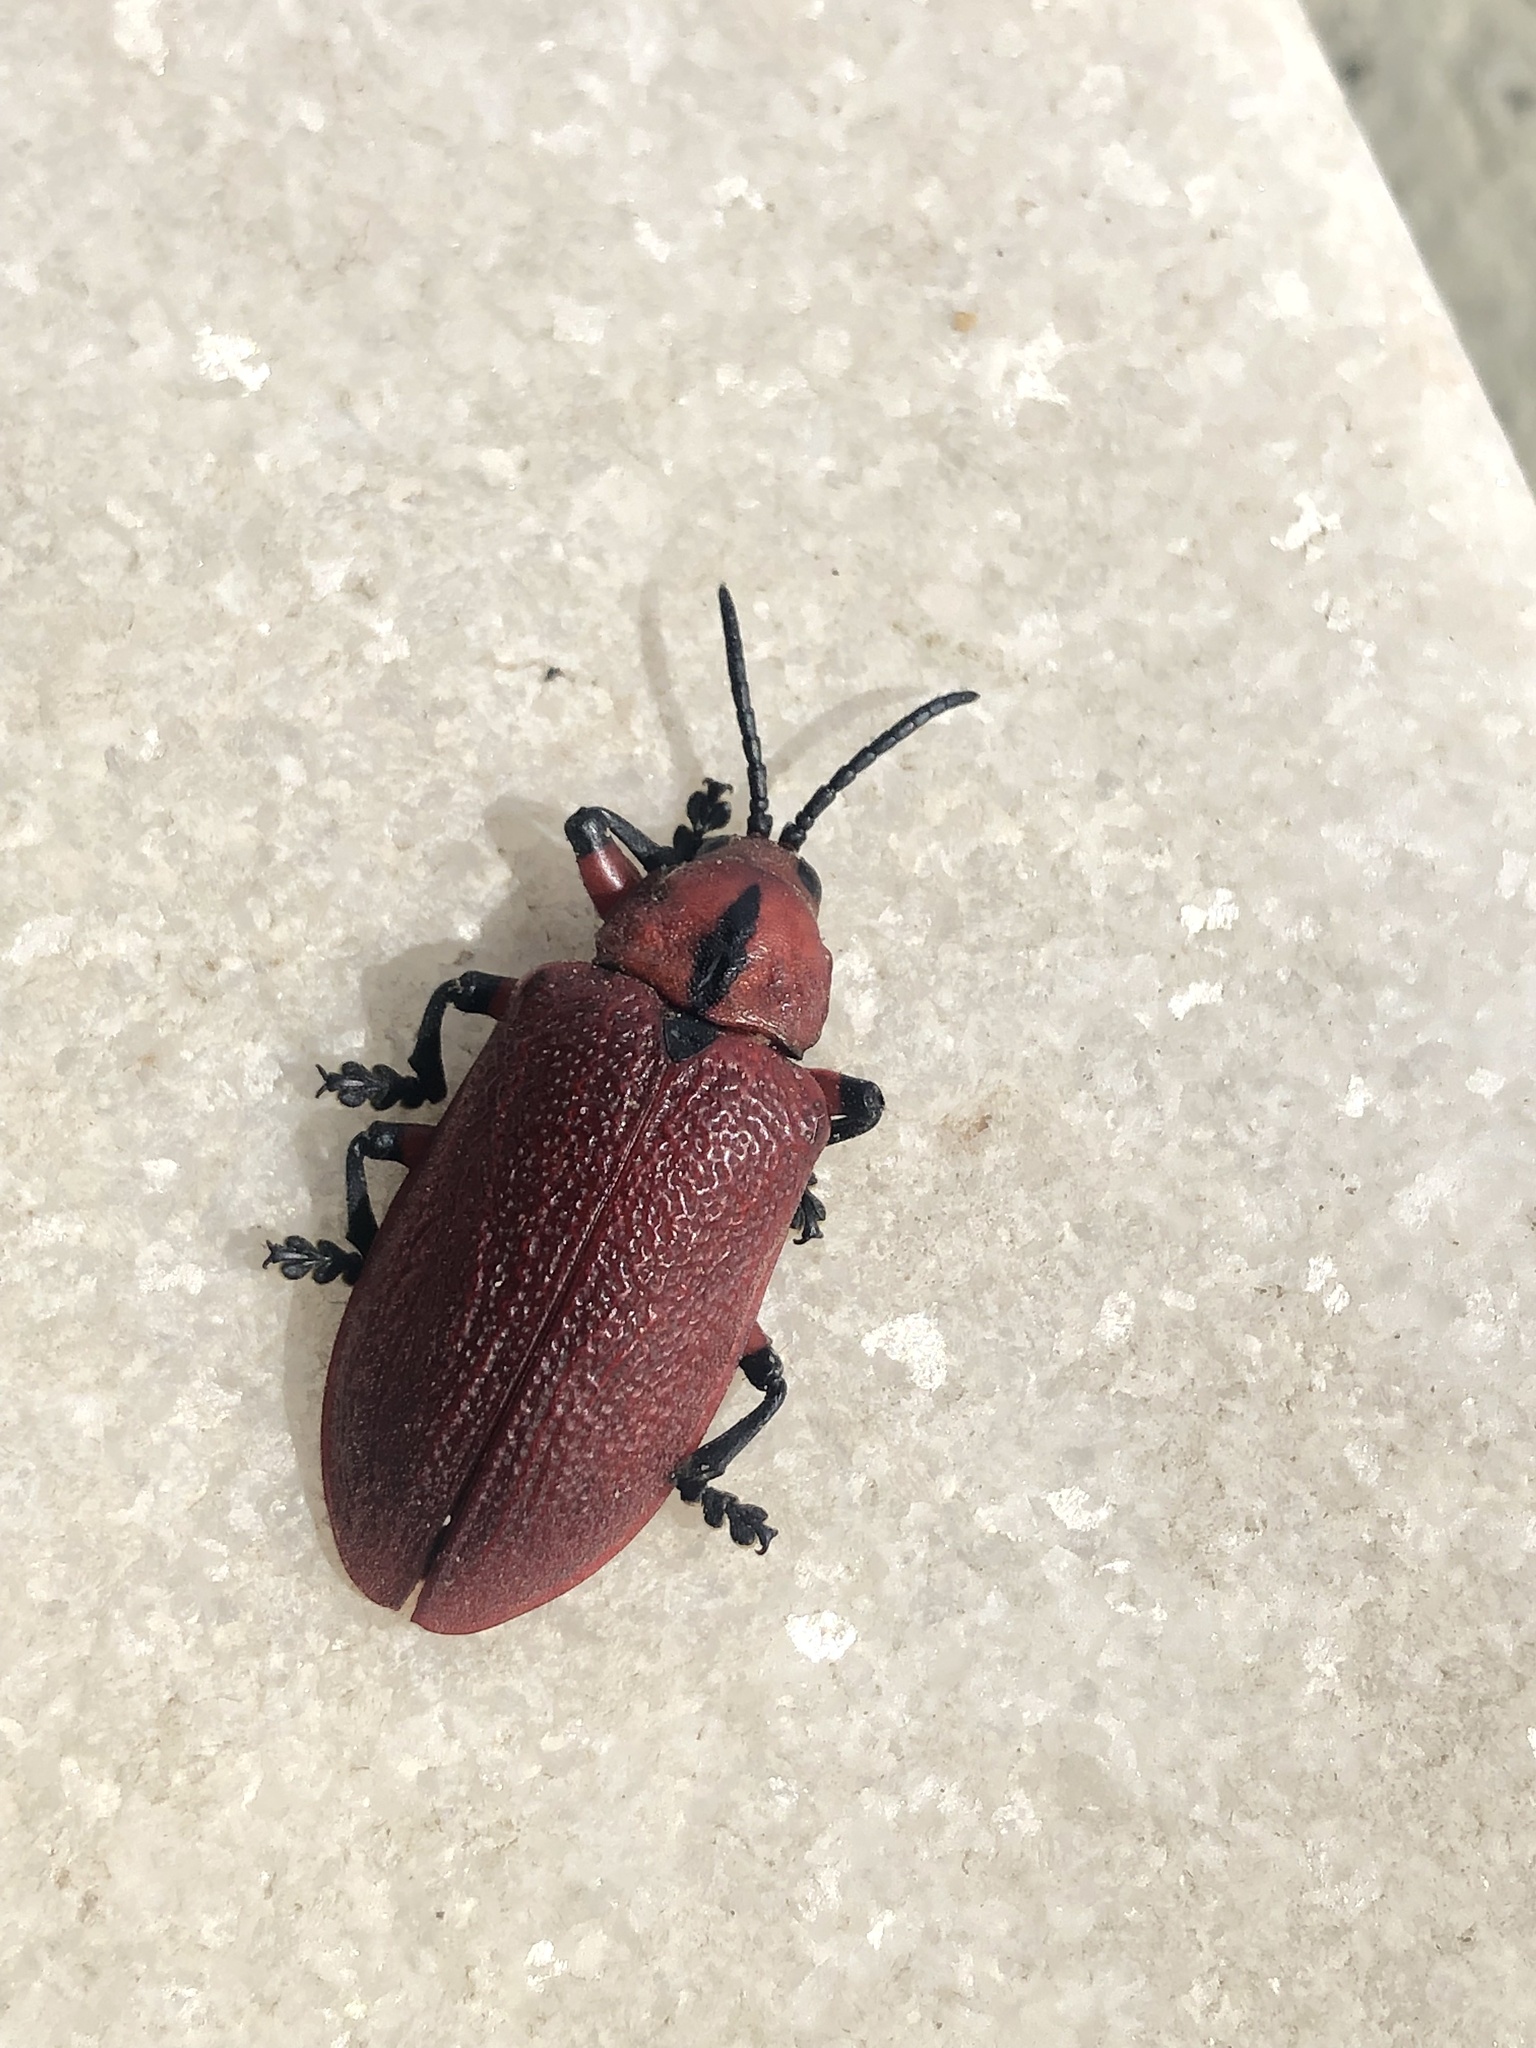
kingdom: Animalia
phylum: Arthropoda
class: Insecta
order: Coleoptera
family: Chrysomelidae
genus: Coraliomela
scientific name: Coraliomela brunnea
